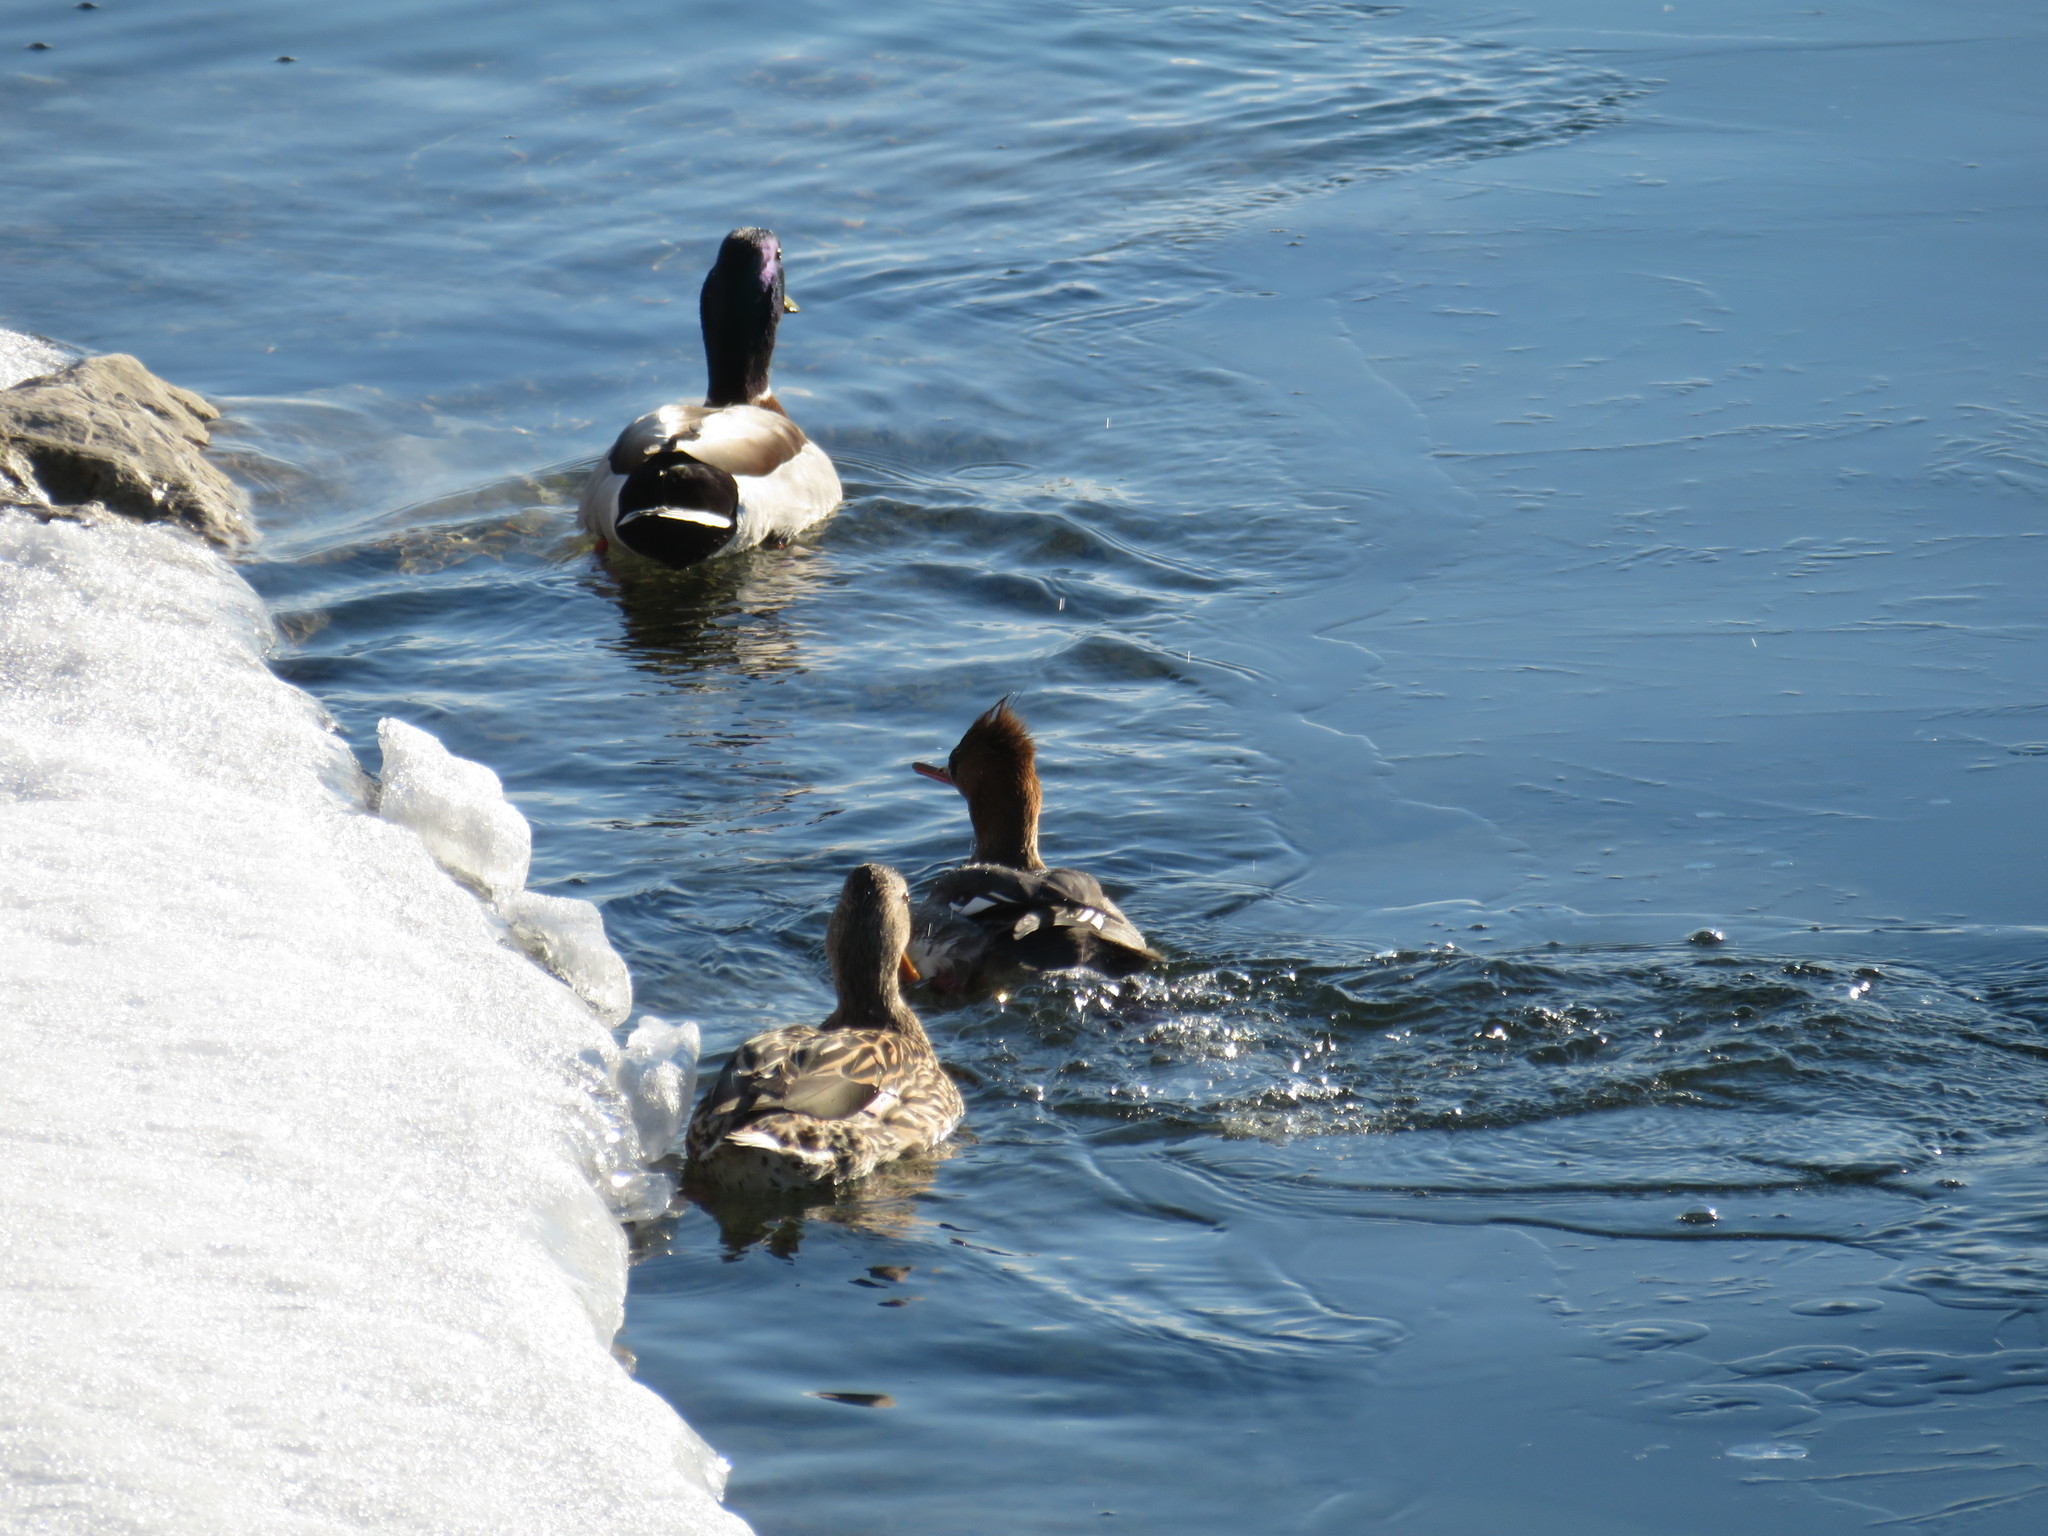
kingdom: Animalia
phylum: Chordata
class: Aves
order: Anseriformes
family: Anatidae
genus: Anas
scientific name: Anas platyrhynchos
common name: Mallard
